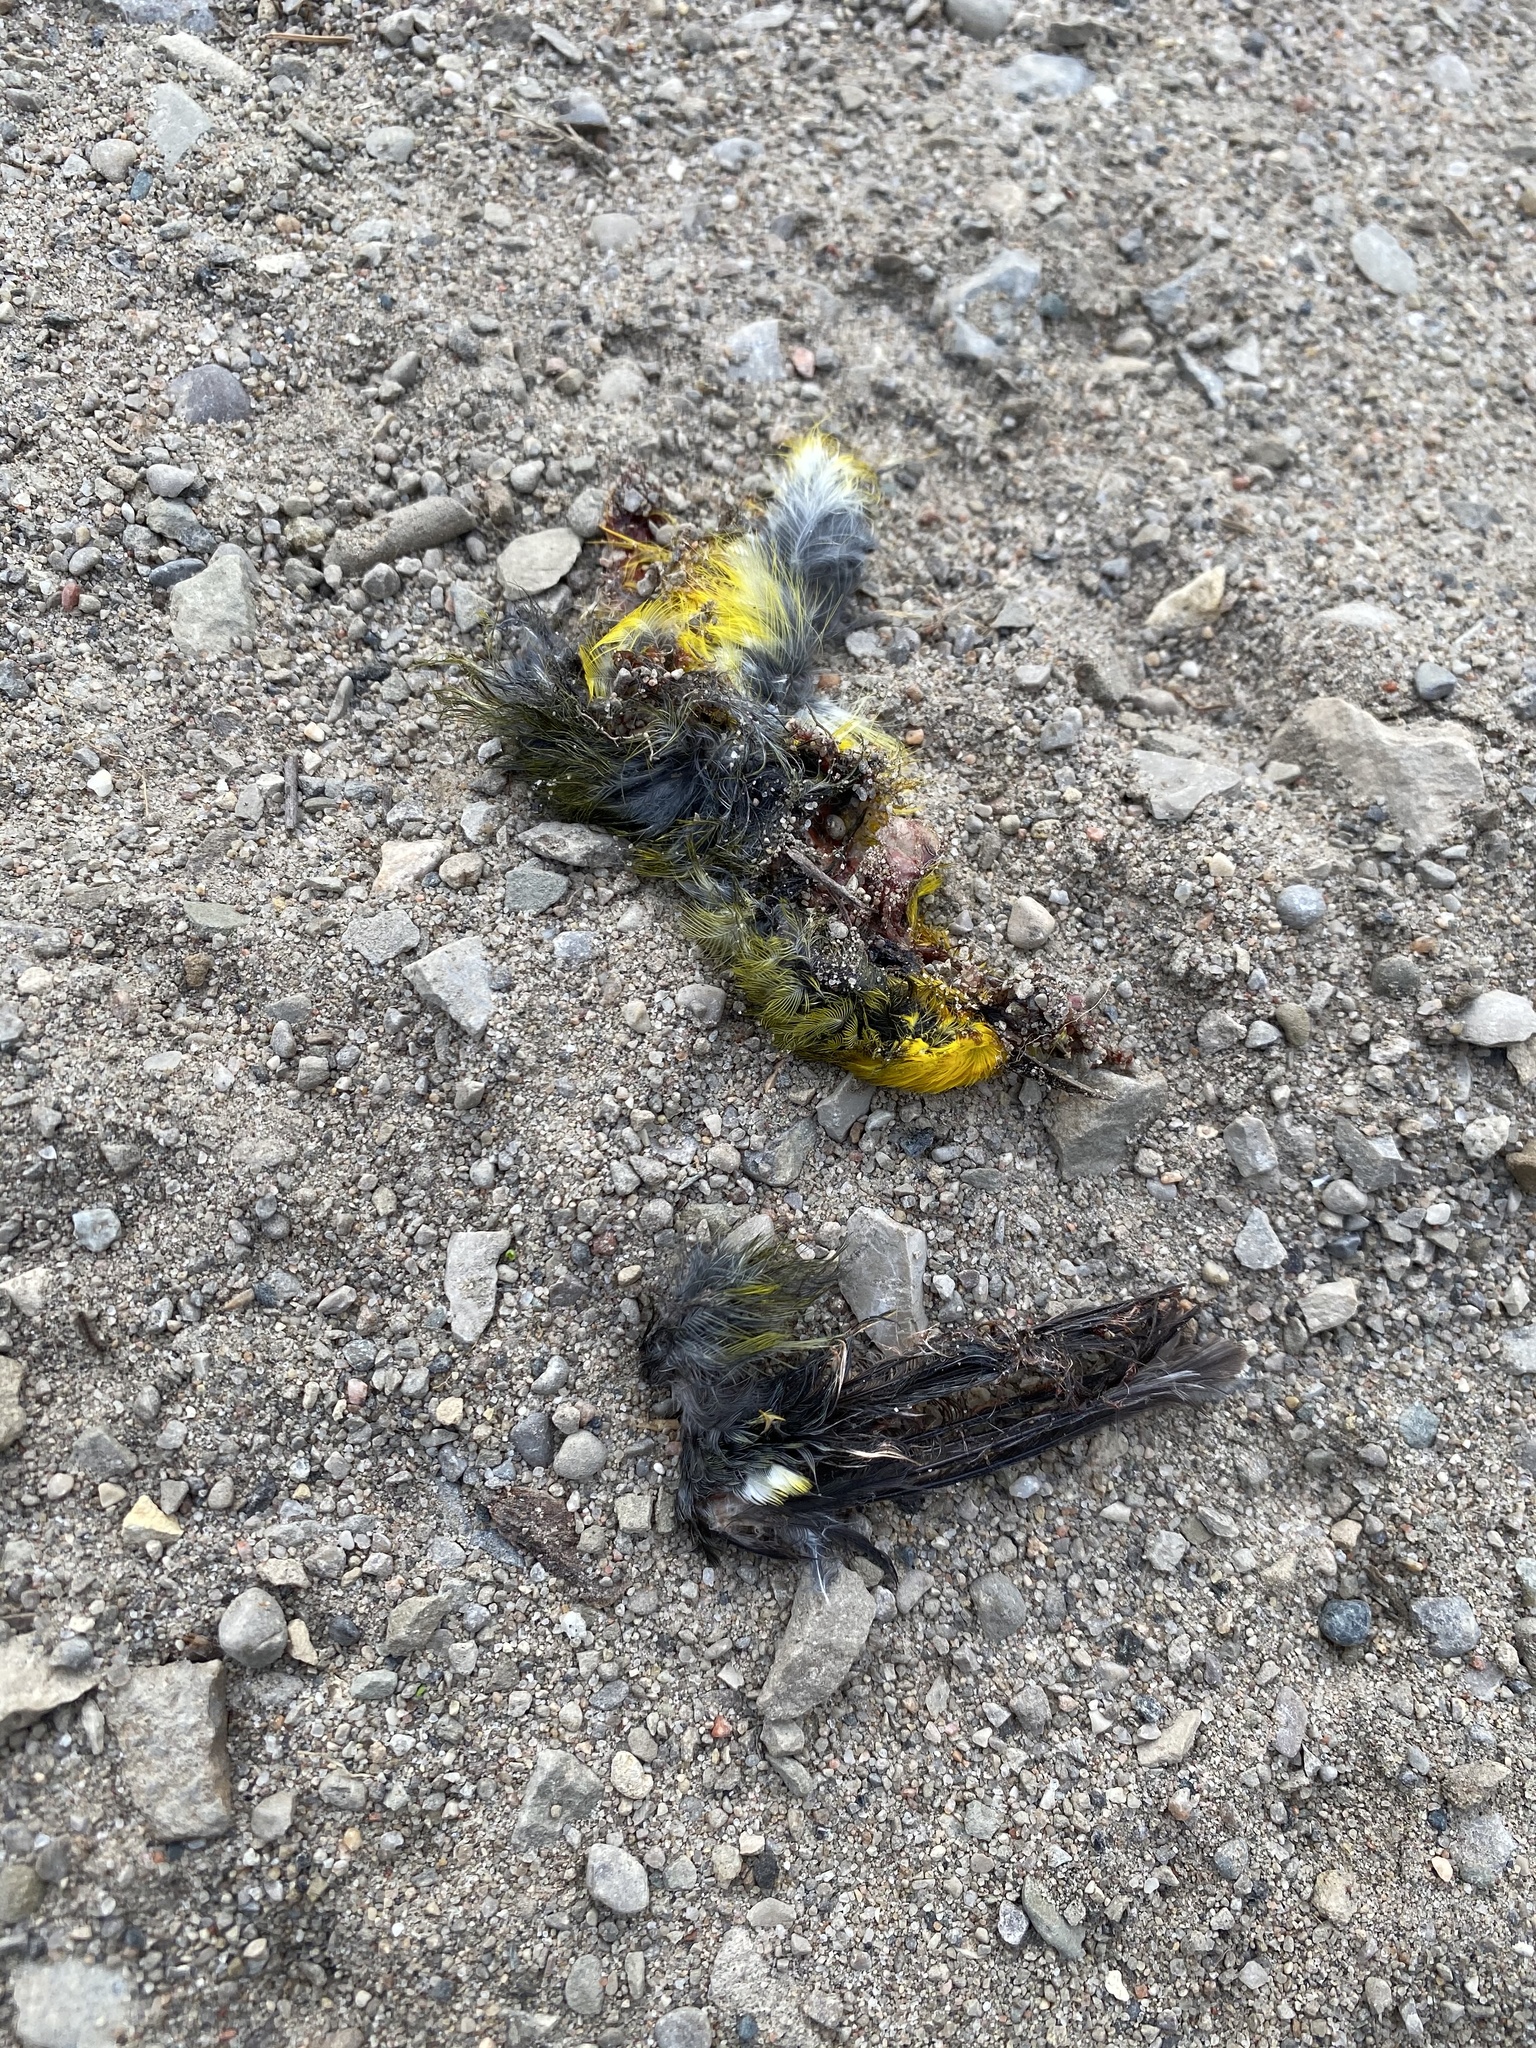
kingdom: Animalia
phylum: Chordata
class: Aves
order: Passeriformes
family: Parulidae
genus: Vermivora
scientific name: Vermivora cyanoptera
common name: Blue-winged warbler
